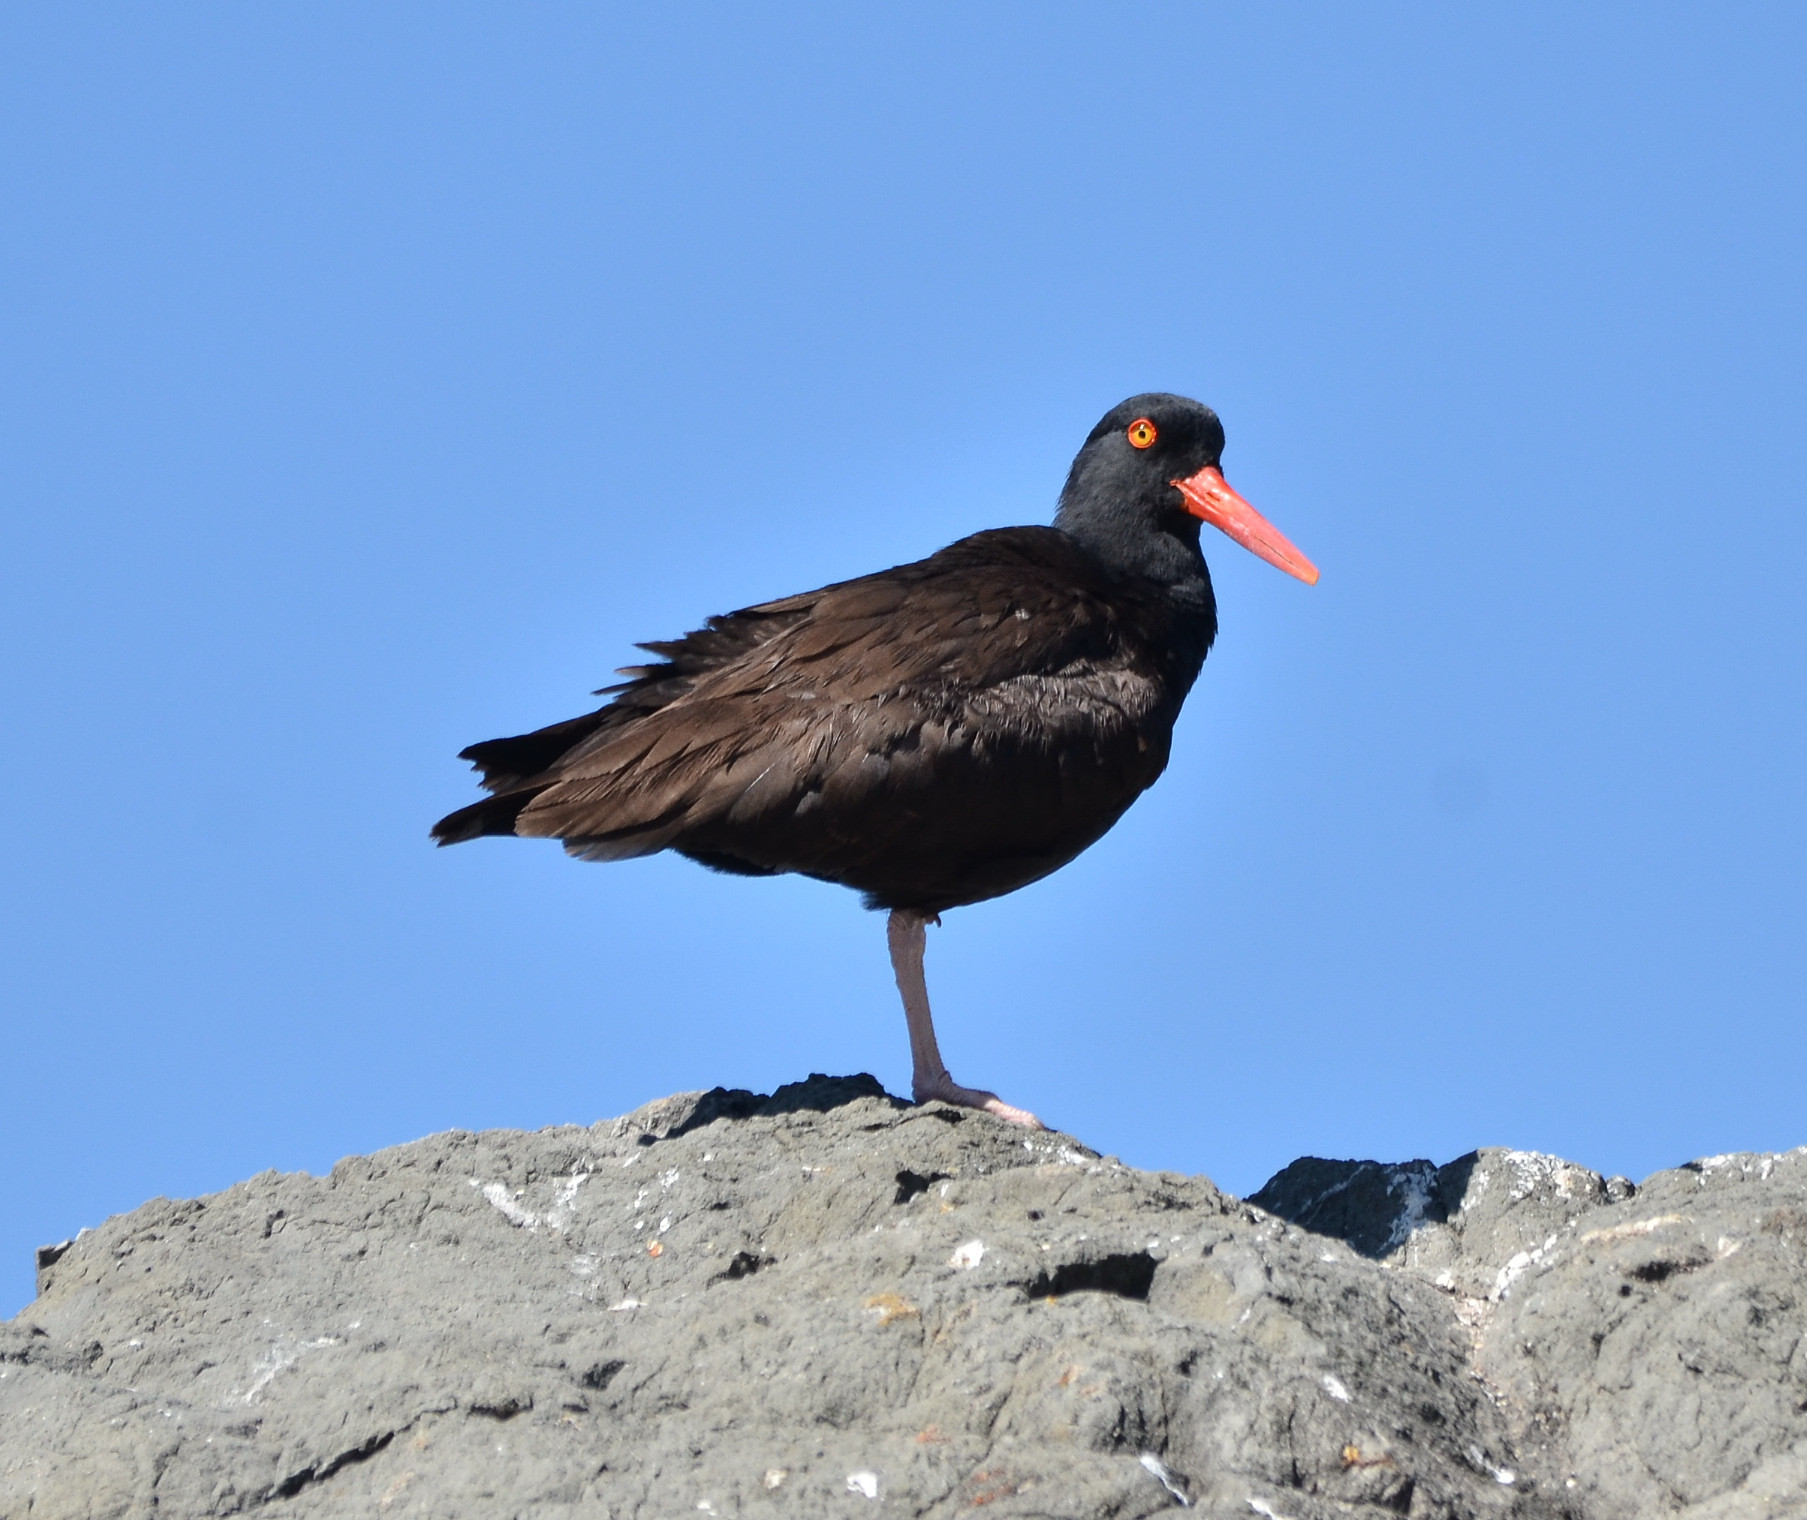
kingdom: Animalia
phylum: Chordata
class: Aves
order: Charadriiformes
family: Haematopodidae
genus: Haematopus
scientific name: Haematopus bachmani
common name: Black oystercatcher
